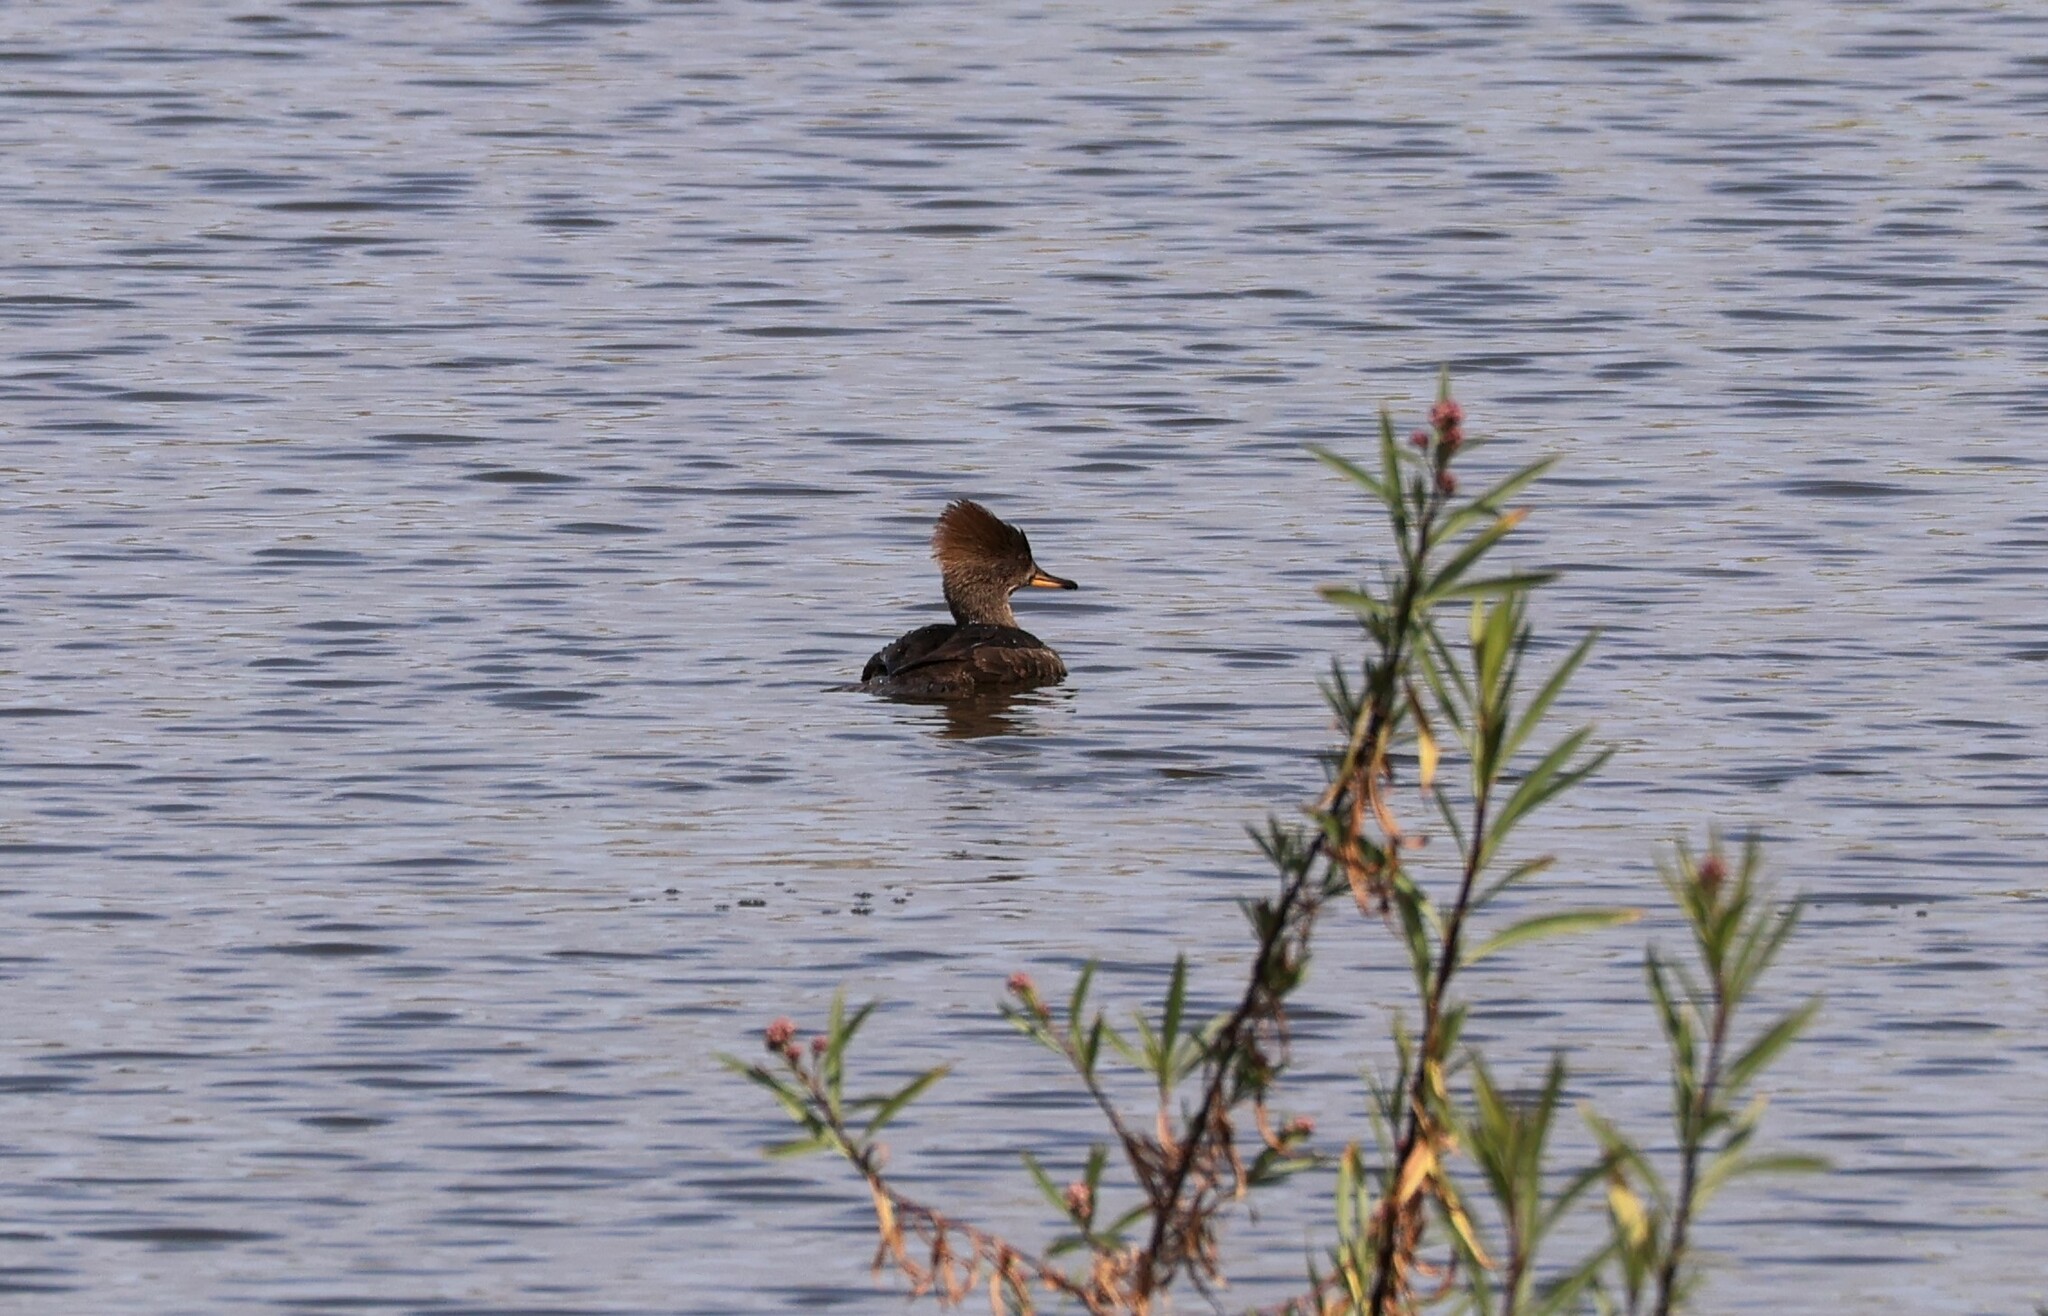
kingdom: Animalia
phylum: Chordata
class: Aves
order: Anseriformes
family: Anatidae
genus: Lophodytes
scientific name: Lophodytes cucullatus
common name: Hooded merganser
